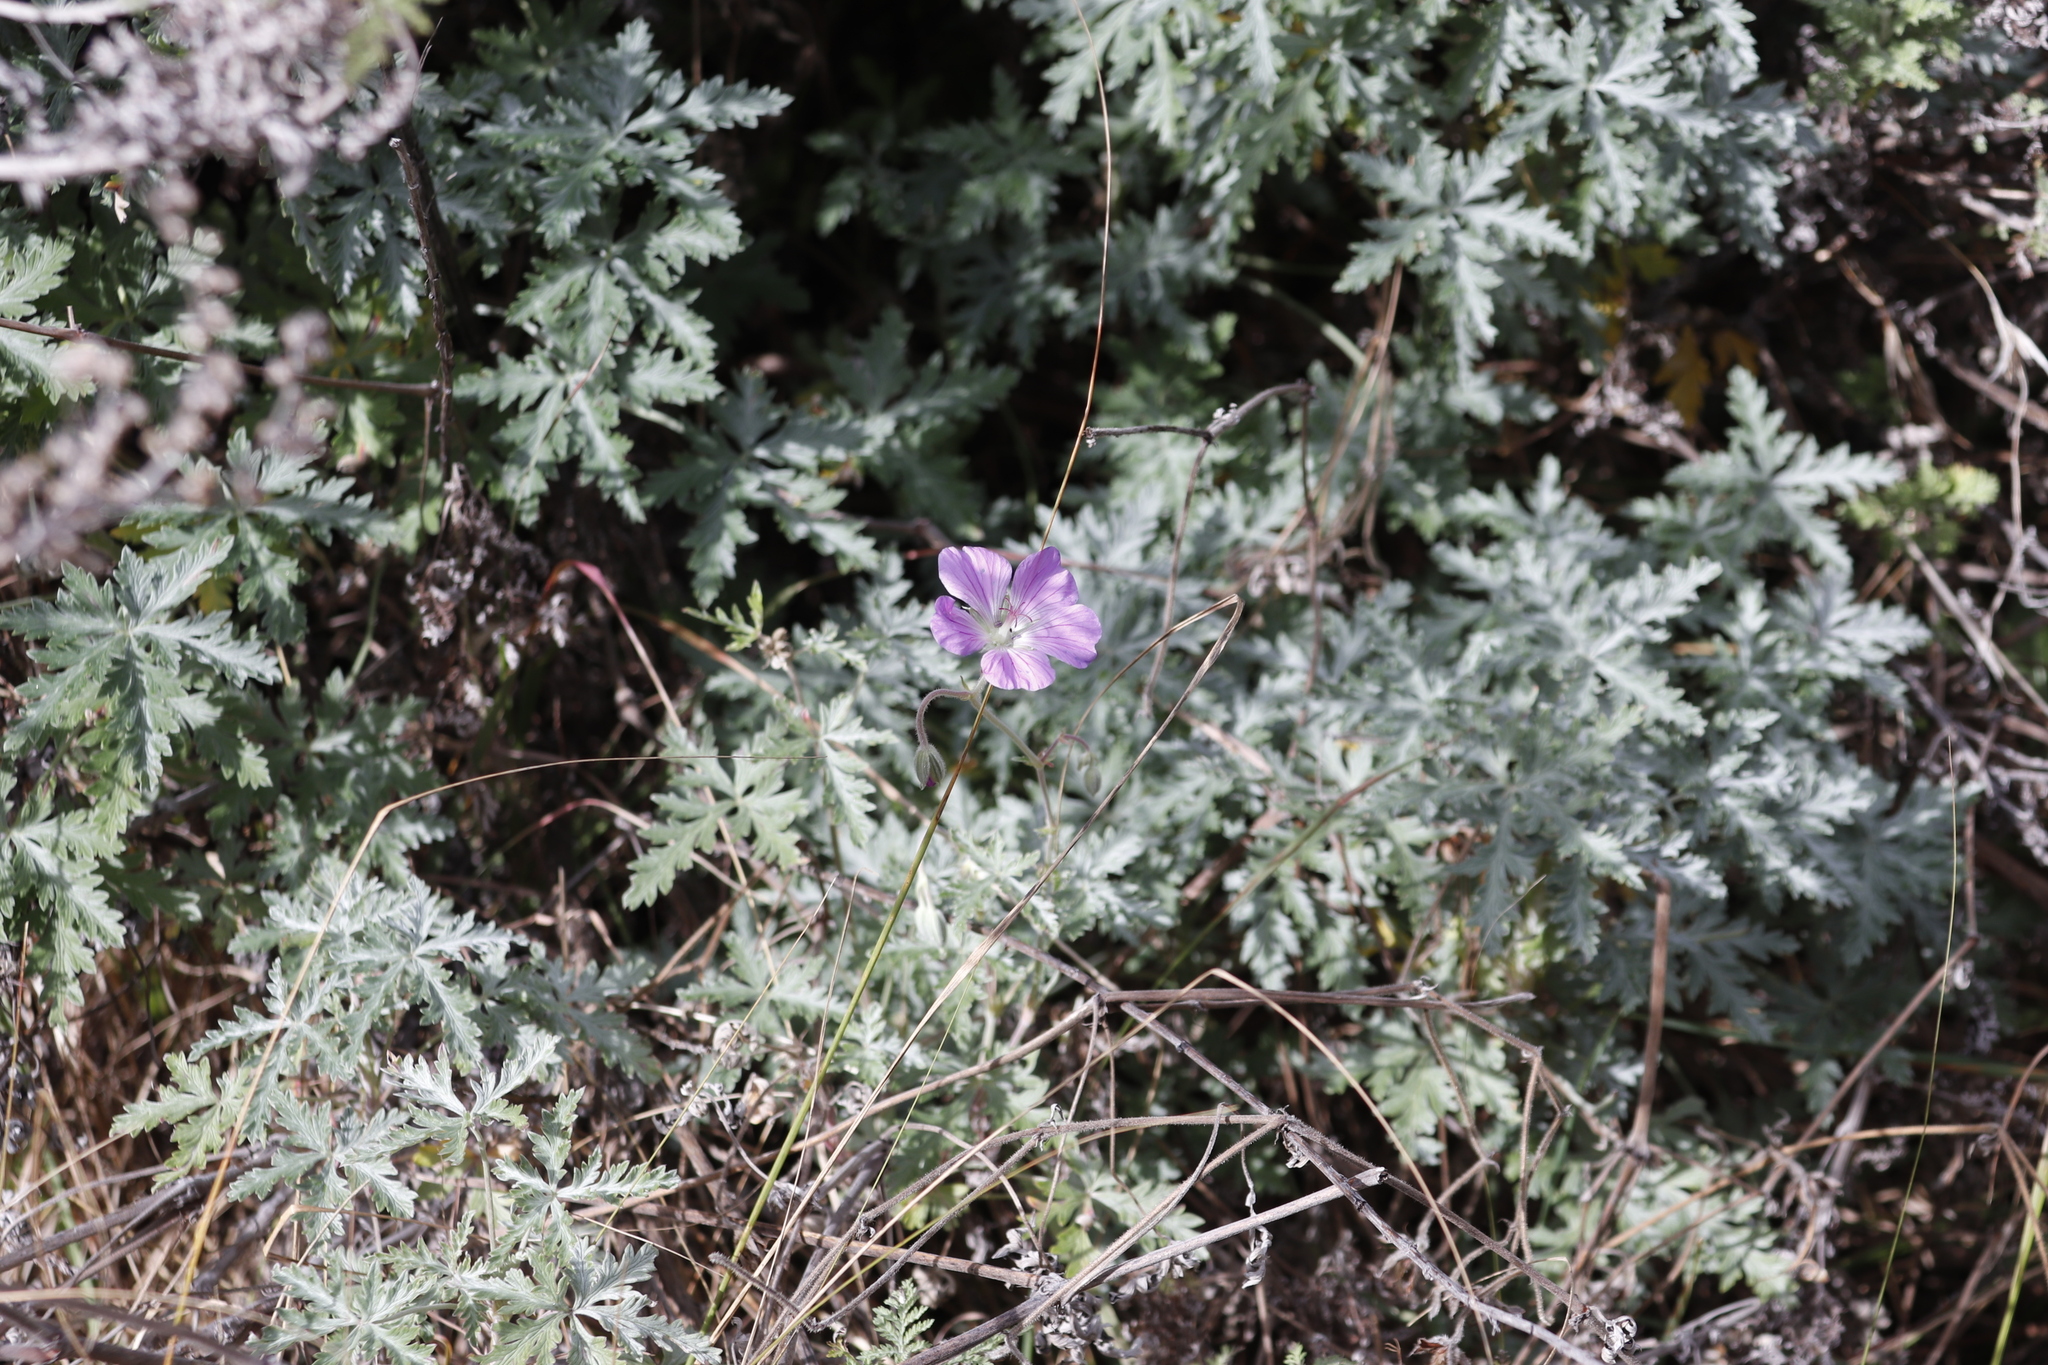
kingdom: Plantae
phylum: Tracheophyta
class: Magnoliopsida
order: Geraniales
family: Geraniaceae
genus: Geranium
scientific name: Geranium drakensbergense
